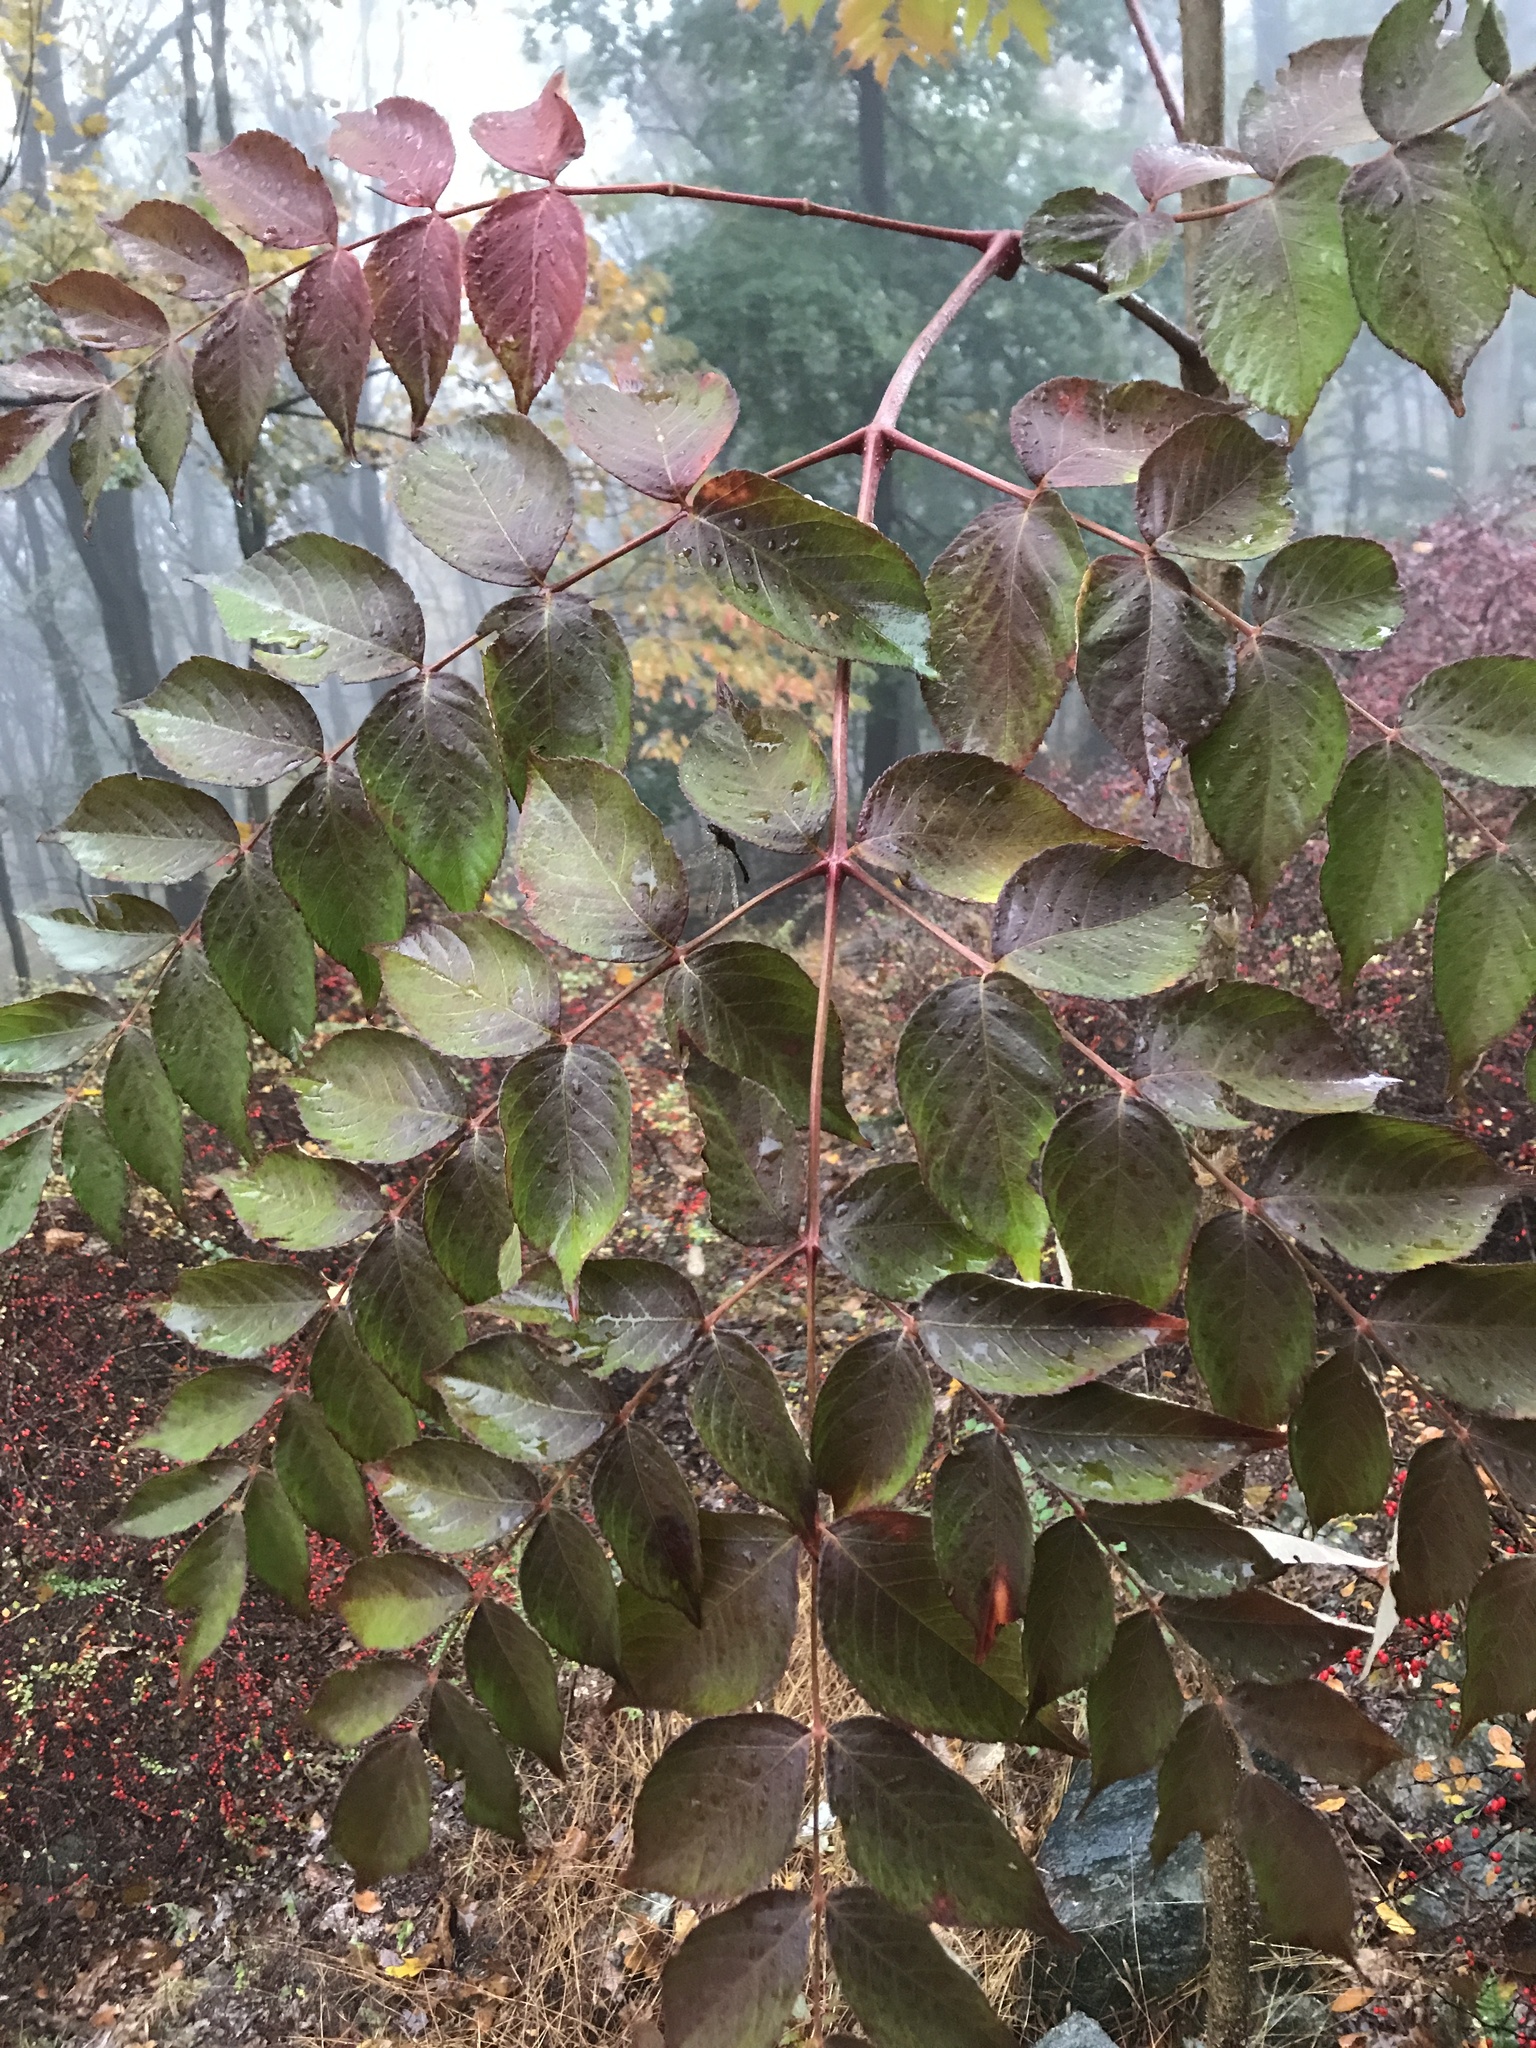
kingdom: Plantae
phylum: Tracheophyta
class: Magnoliopsida
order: Apiales
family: Araliaceae
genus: Aralia
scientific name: Aralia elata
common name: Japanese angelica-tree
